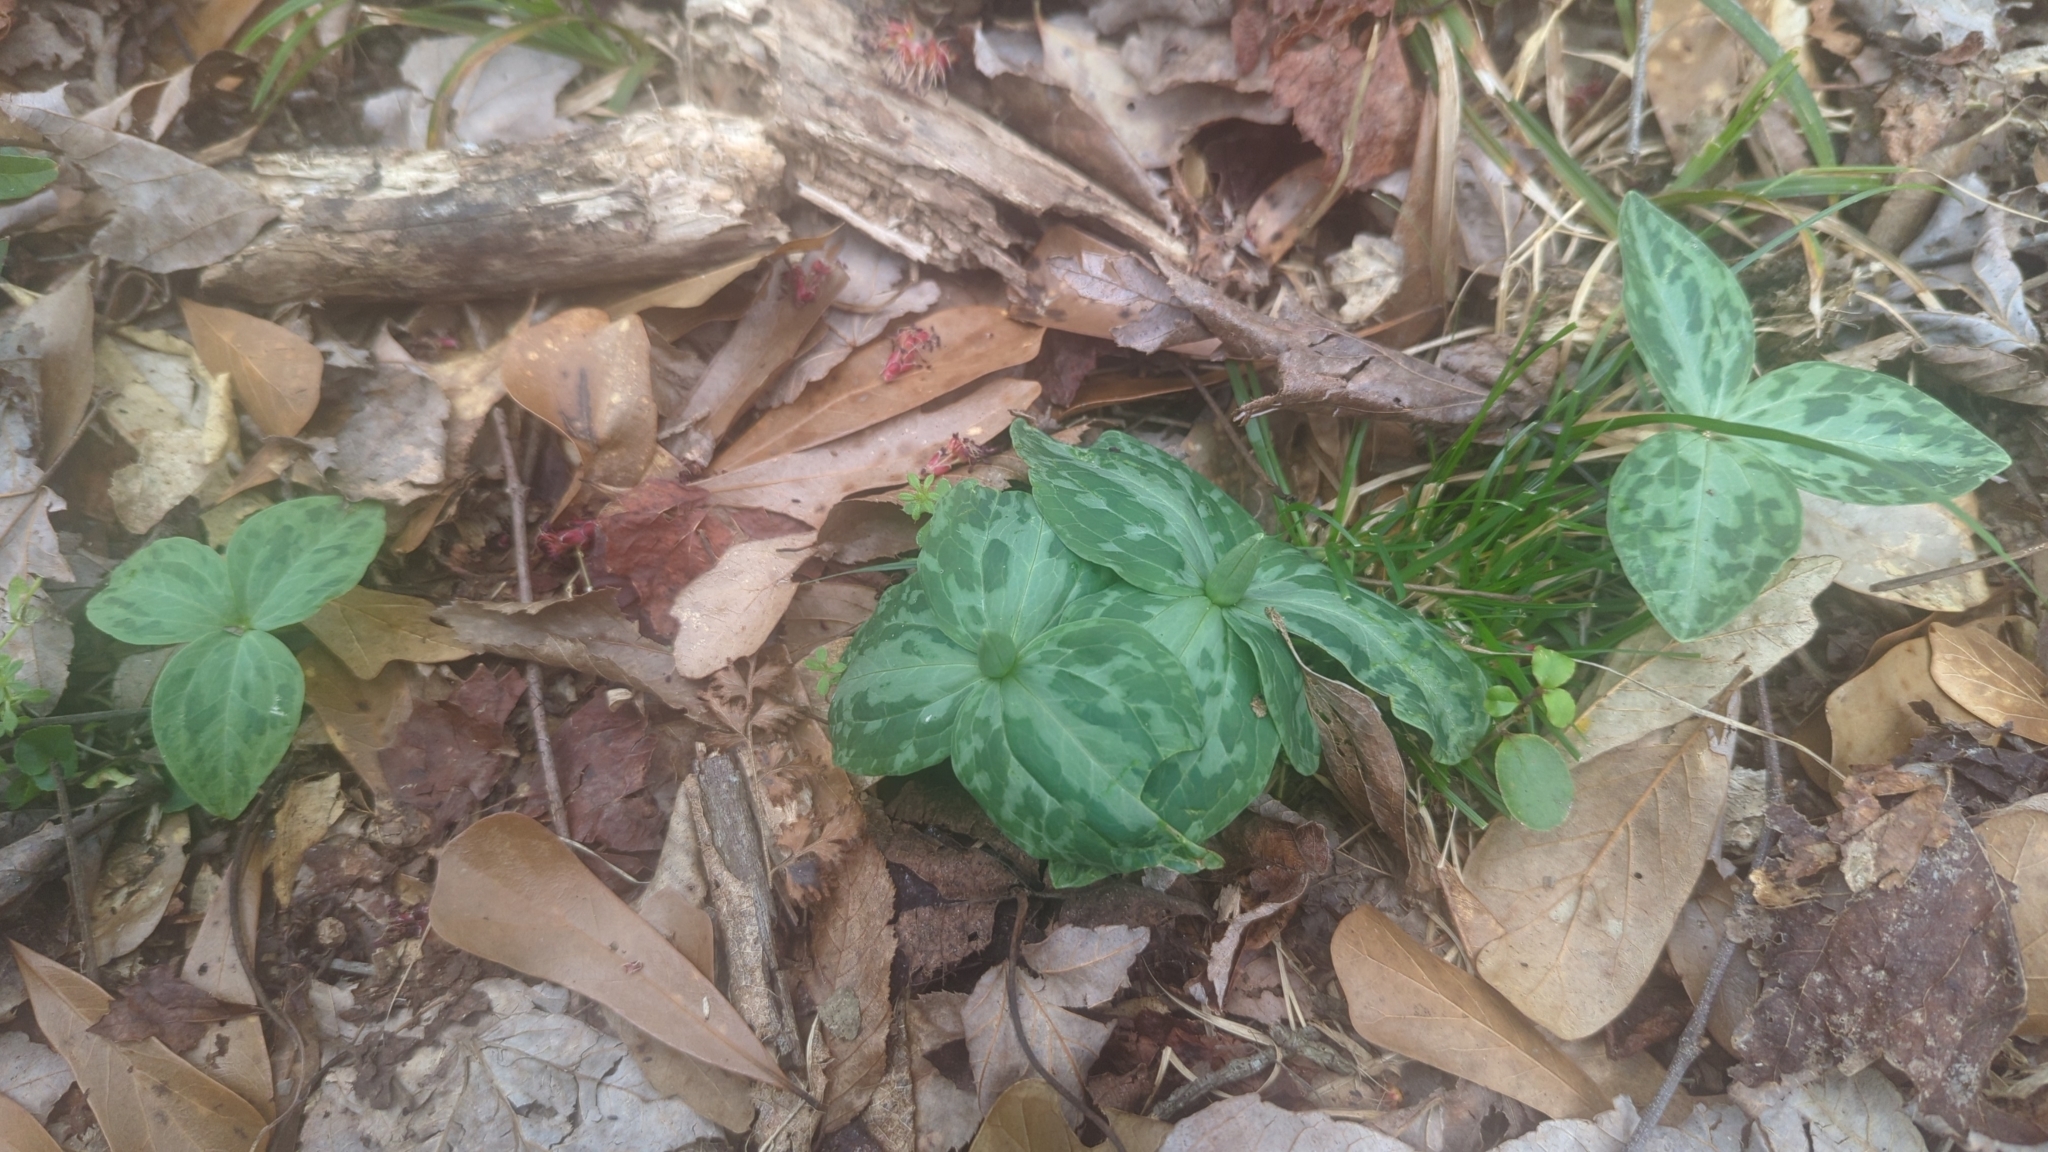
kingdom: Plantae
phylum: Tracheophyta
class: Liliopsida
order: Liliales
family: Melanthiaceae
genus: Trillium
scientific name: Trillium foetidissimum
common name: Mississippi river trillium
